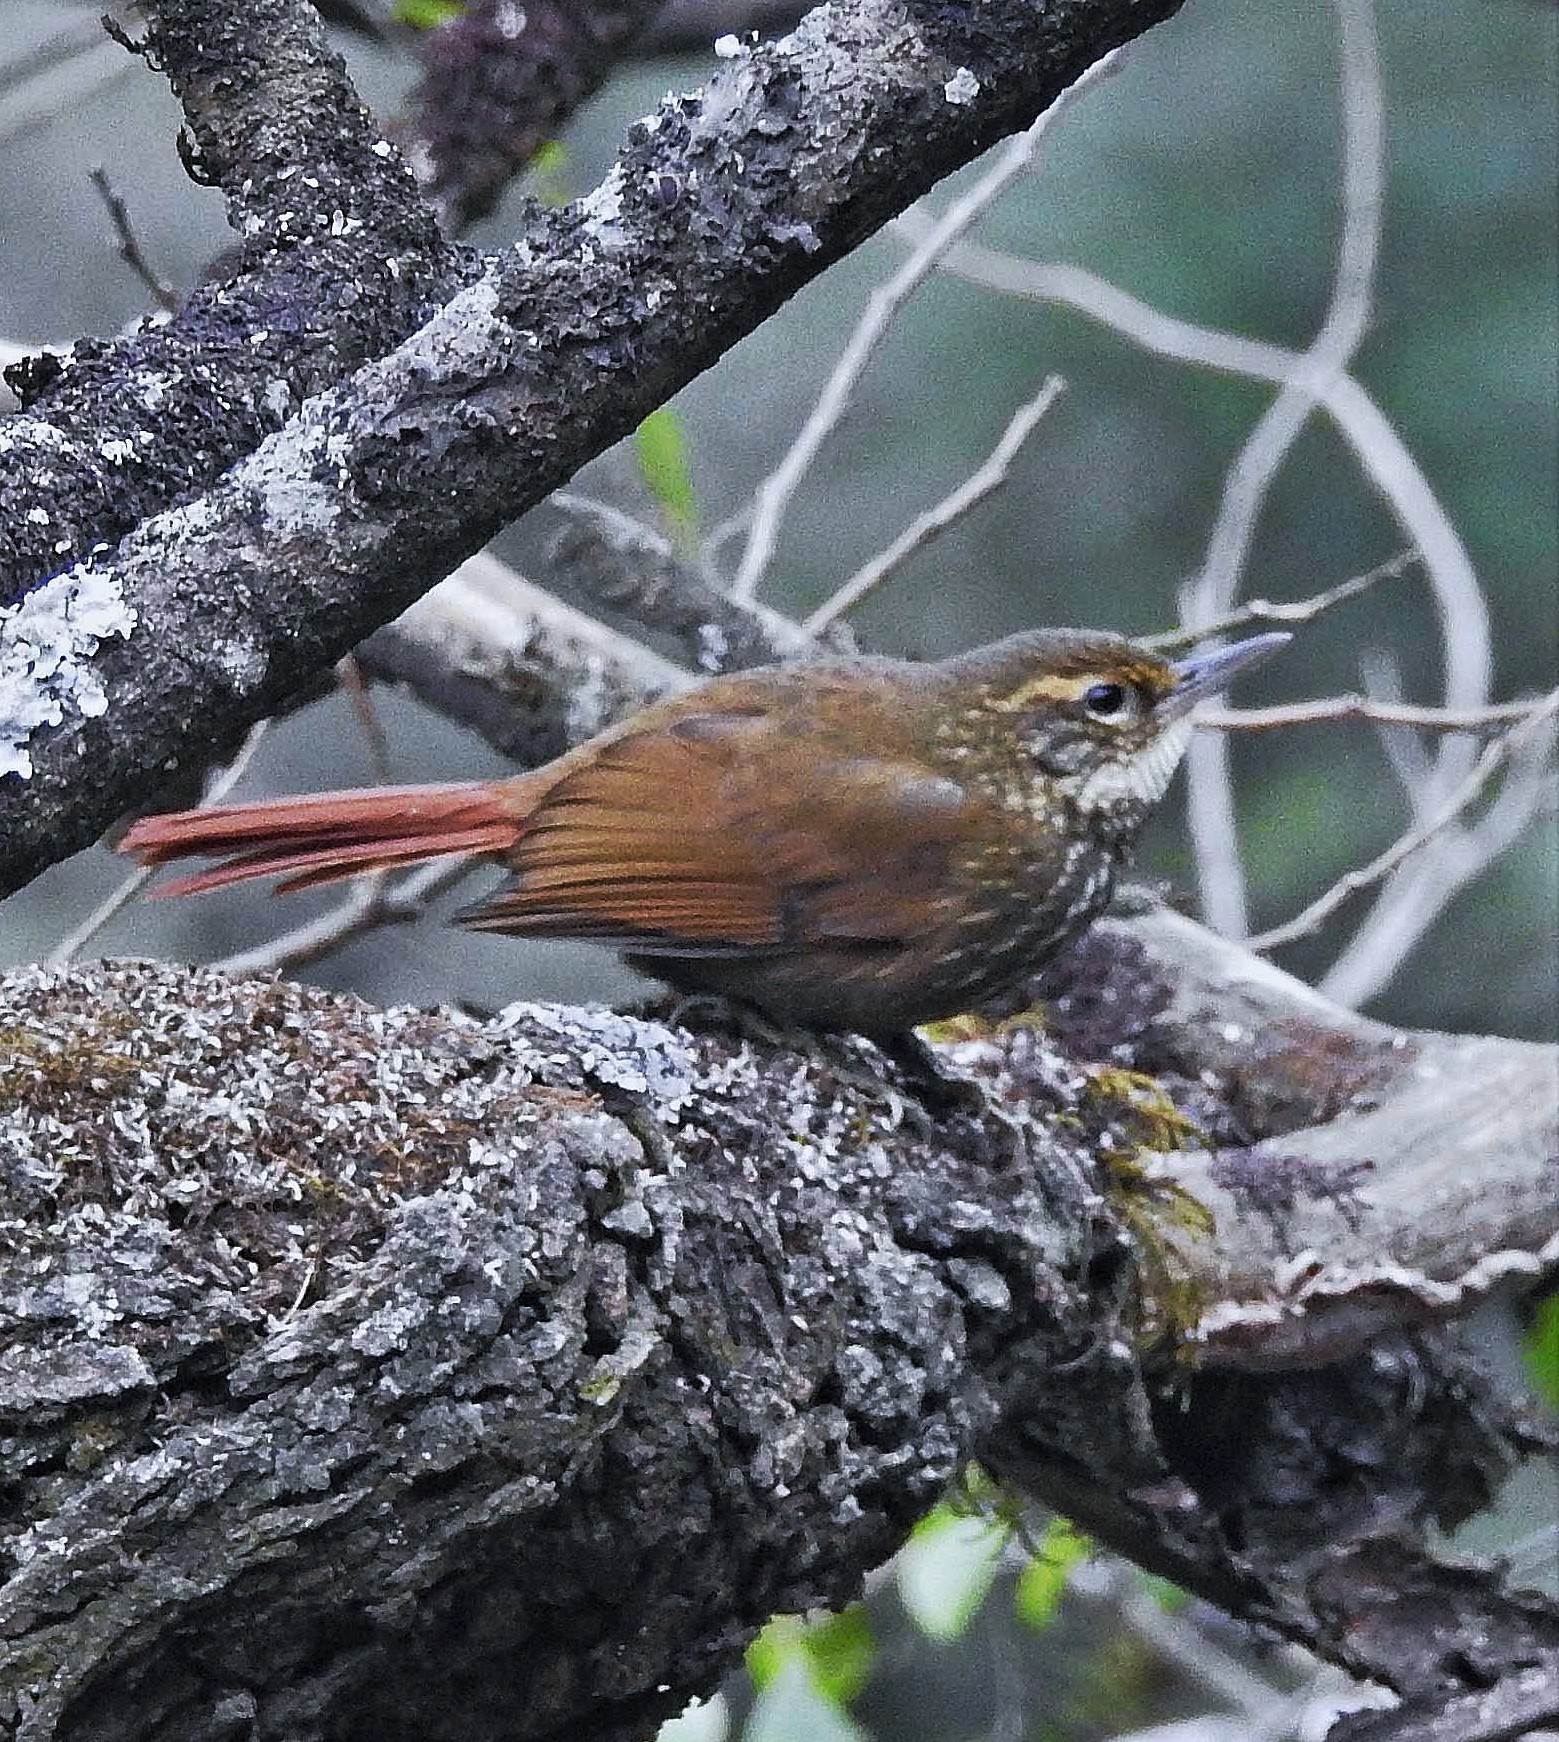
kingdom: Animalia
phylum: Chordata
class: Aves
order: Passeriformes
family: Furnariidae
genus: Syndactyla
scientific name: Syndactyla rufosuperciliata
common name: Buff-browed foliage-gleaner
